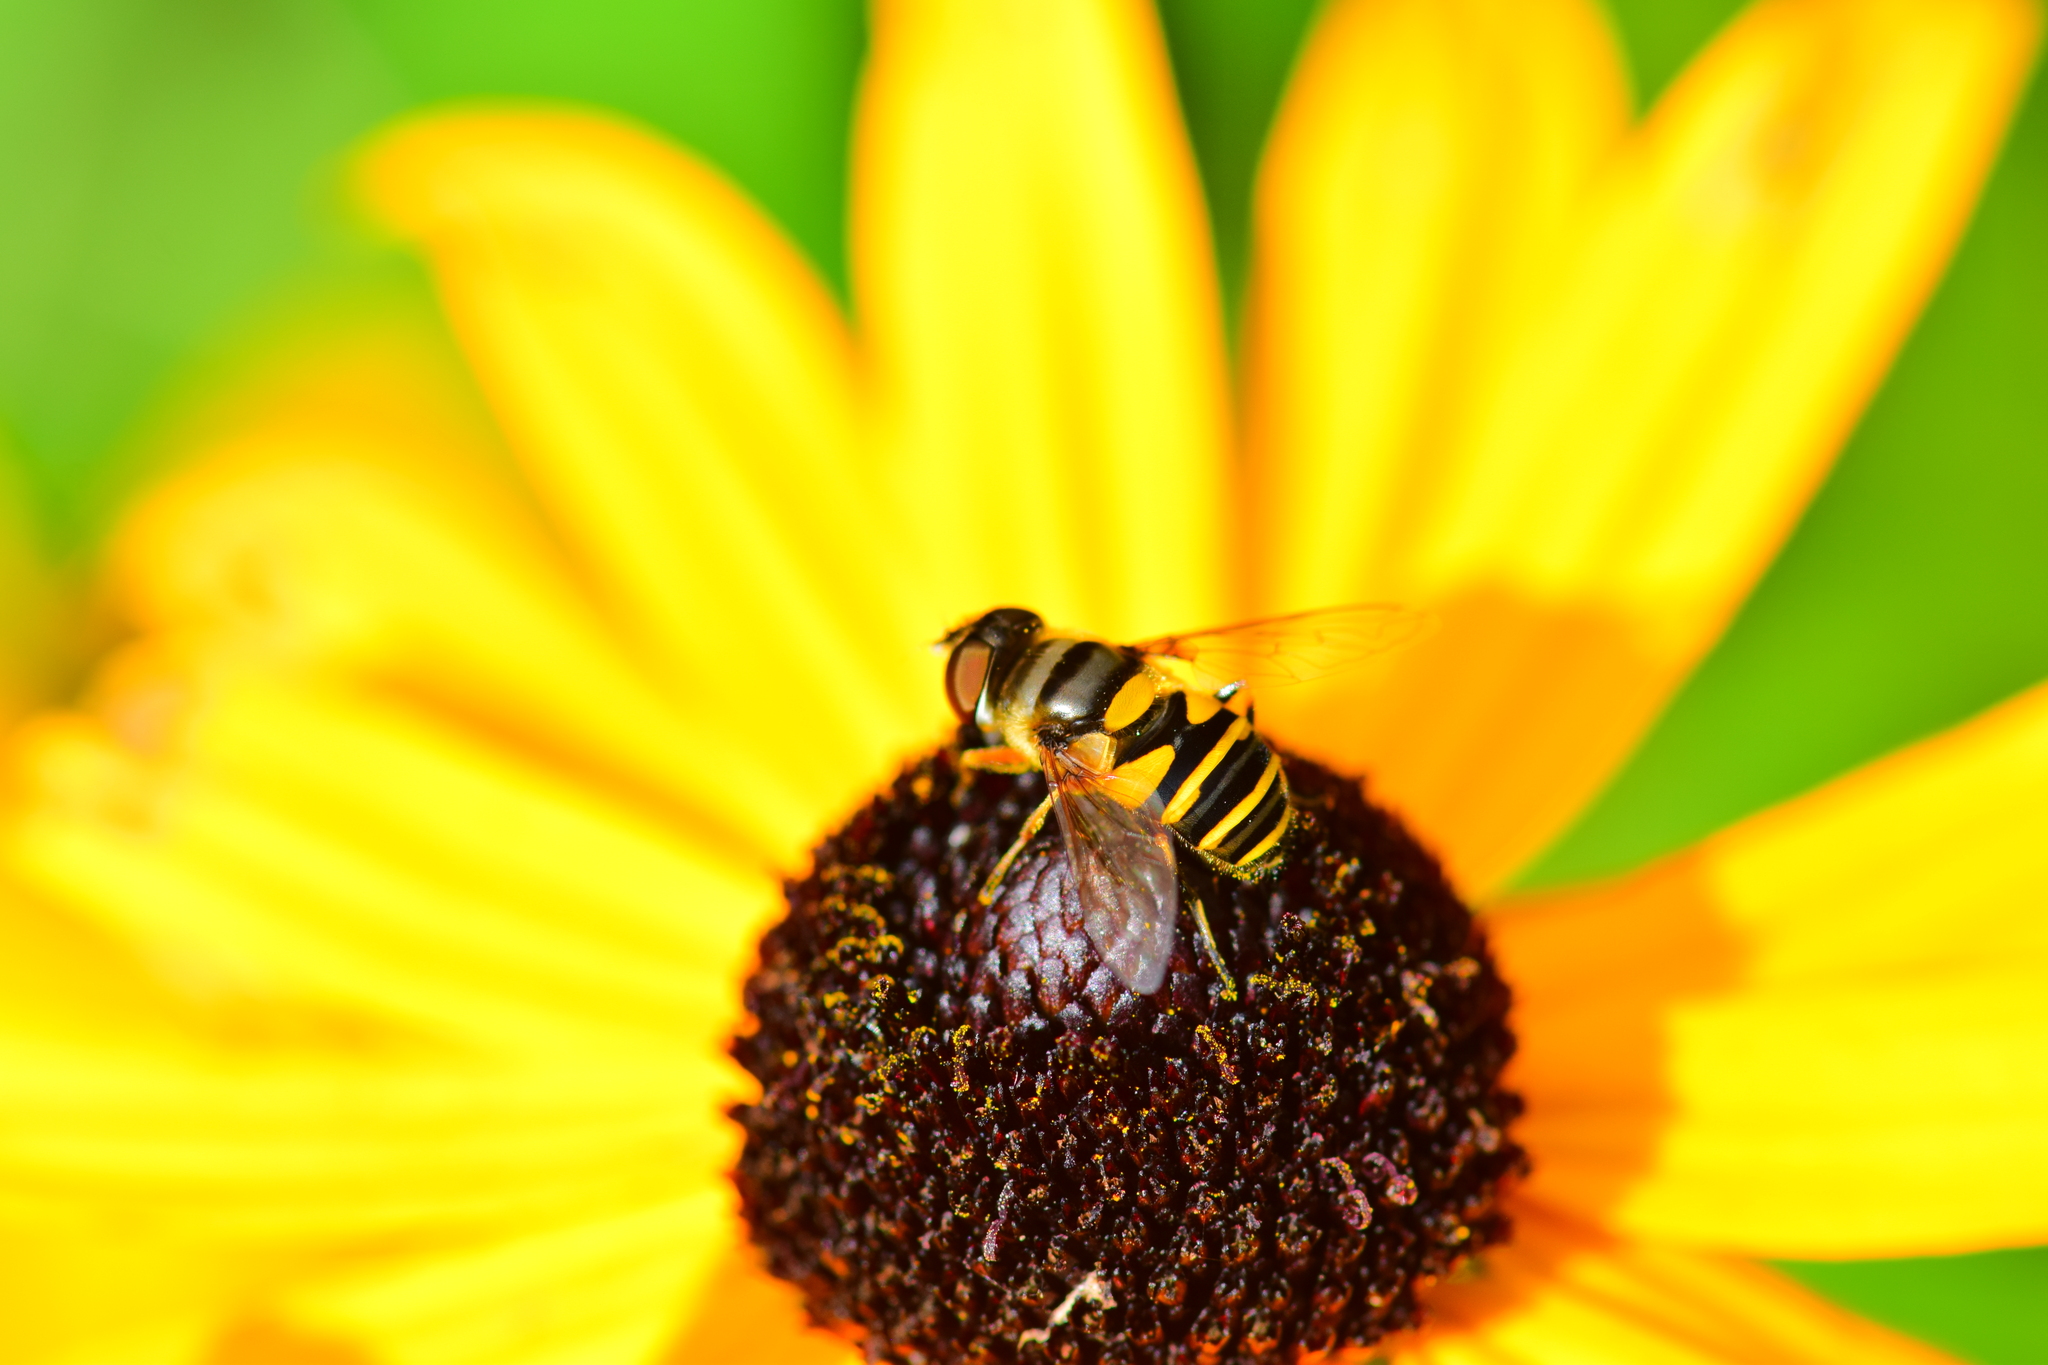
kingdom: Animalia
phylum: Arthropoda
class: Insecta
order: Diptera
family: Syrphidae
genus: Eristalis
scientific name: Eristalis transversa
